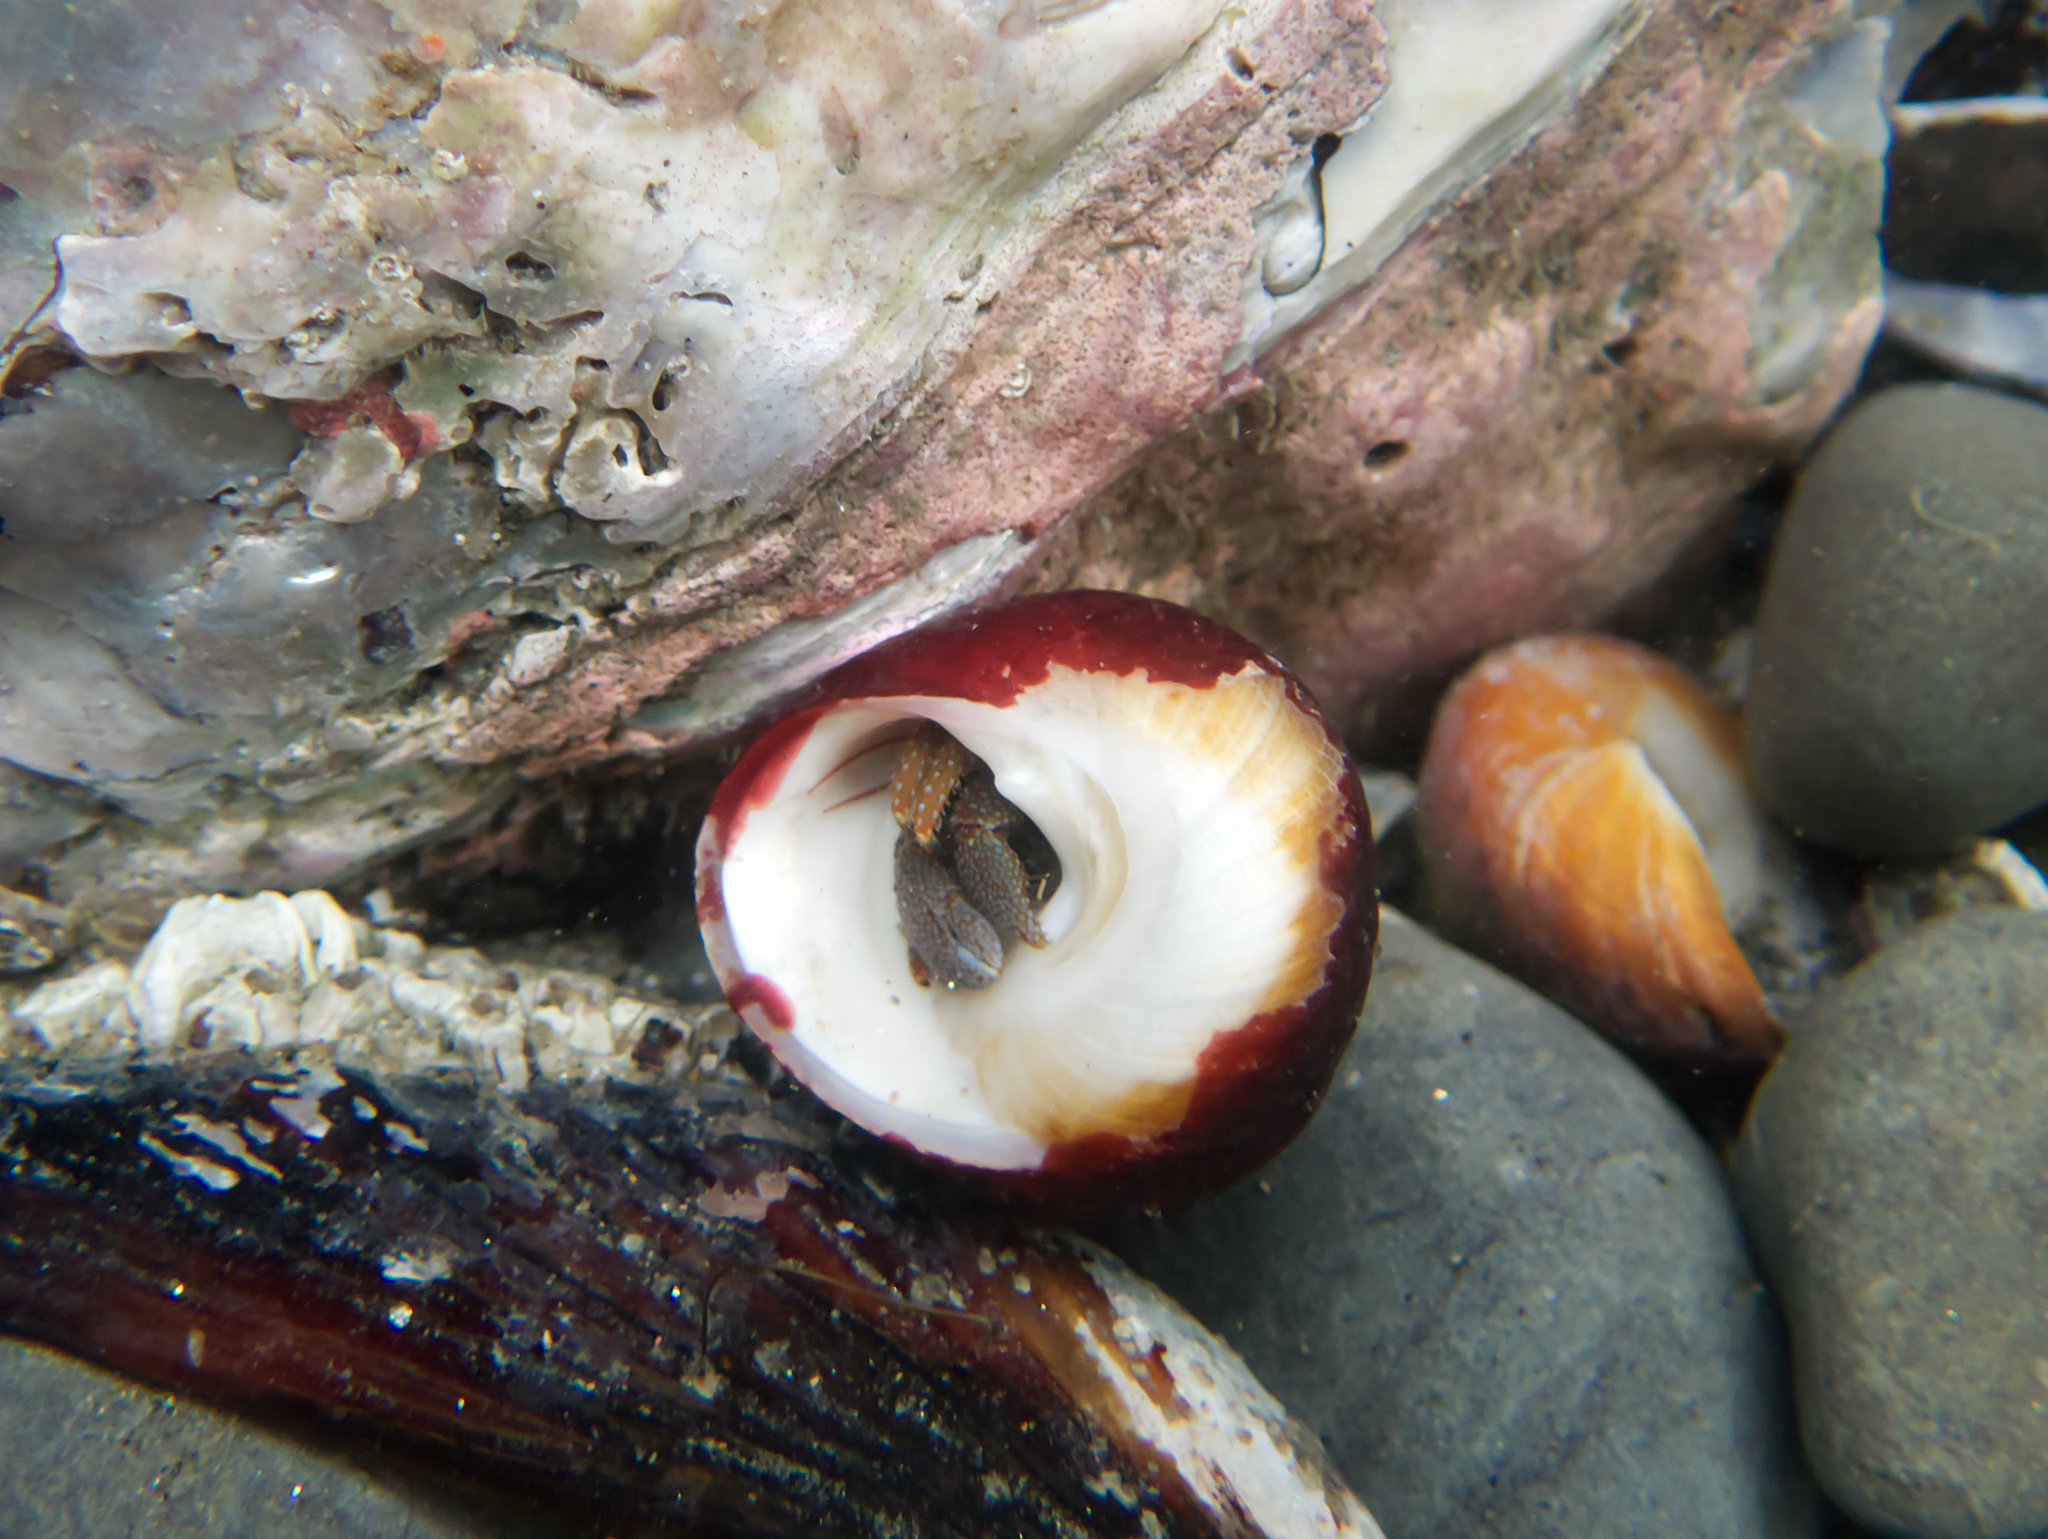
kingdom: Animalia
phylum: Arthropoda
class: Malacostraca
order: Decapoda
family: Paguridae
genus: Pagurus
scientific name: Pagurus granosimanus
